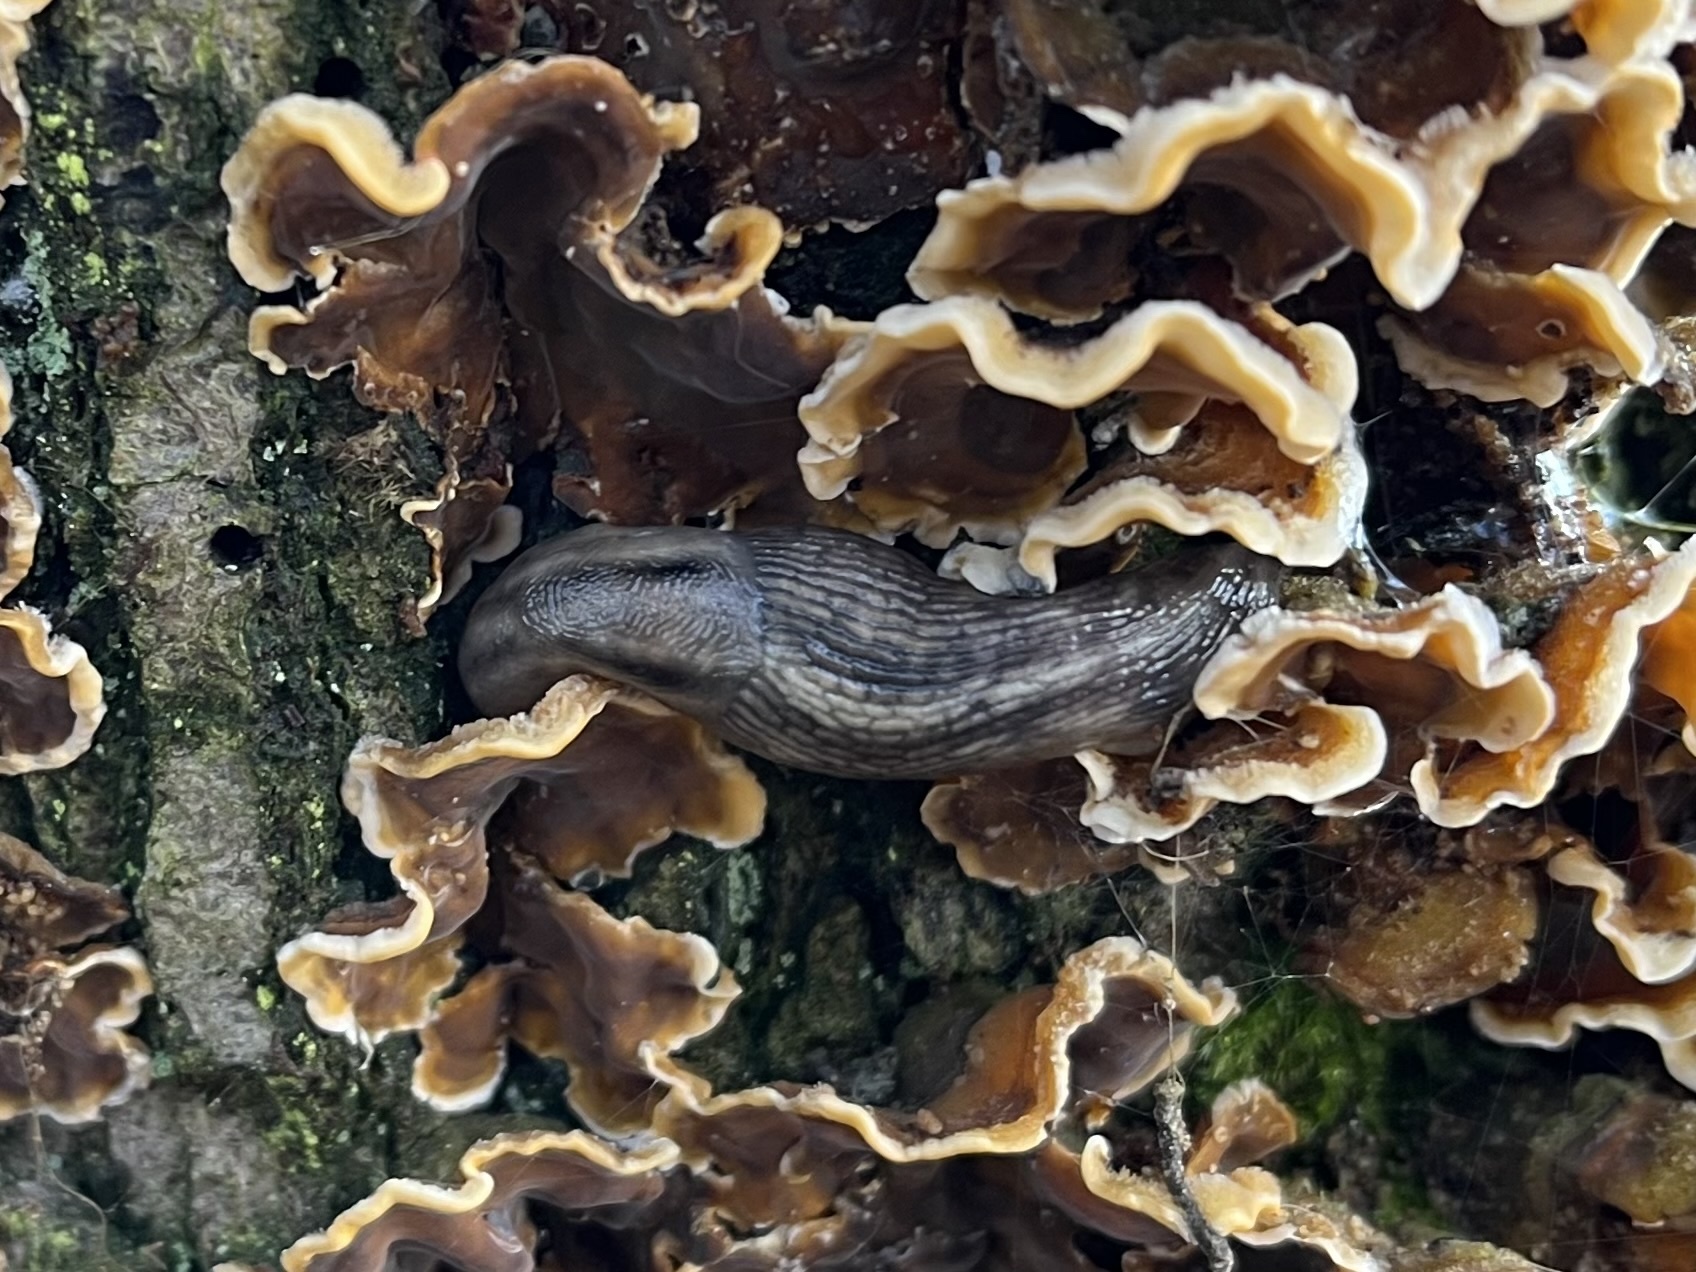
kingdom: Animalia
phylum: Mollusca
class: Gastropoda
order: Stylommatophora
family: Limacidae
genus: Lehmannia
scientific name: Lehmannia marginata
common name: Tree slug
